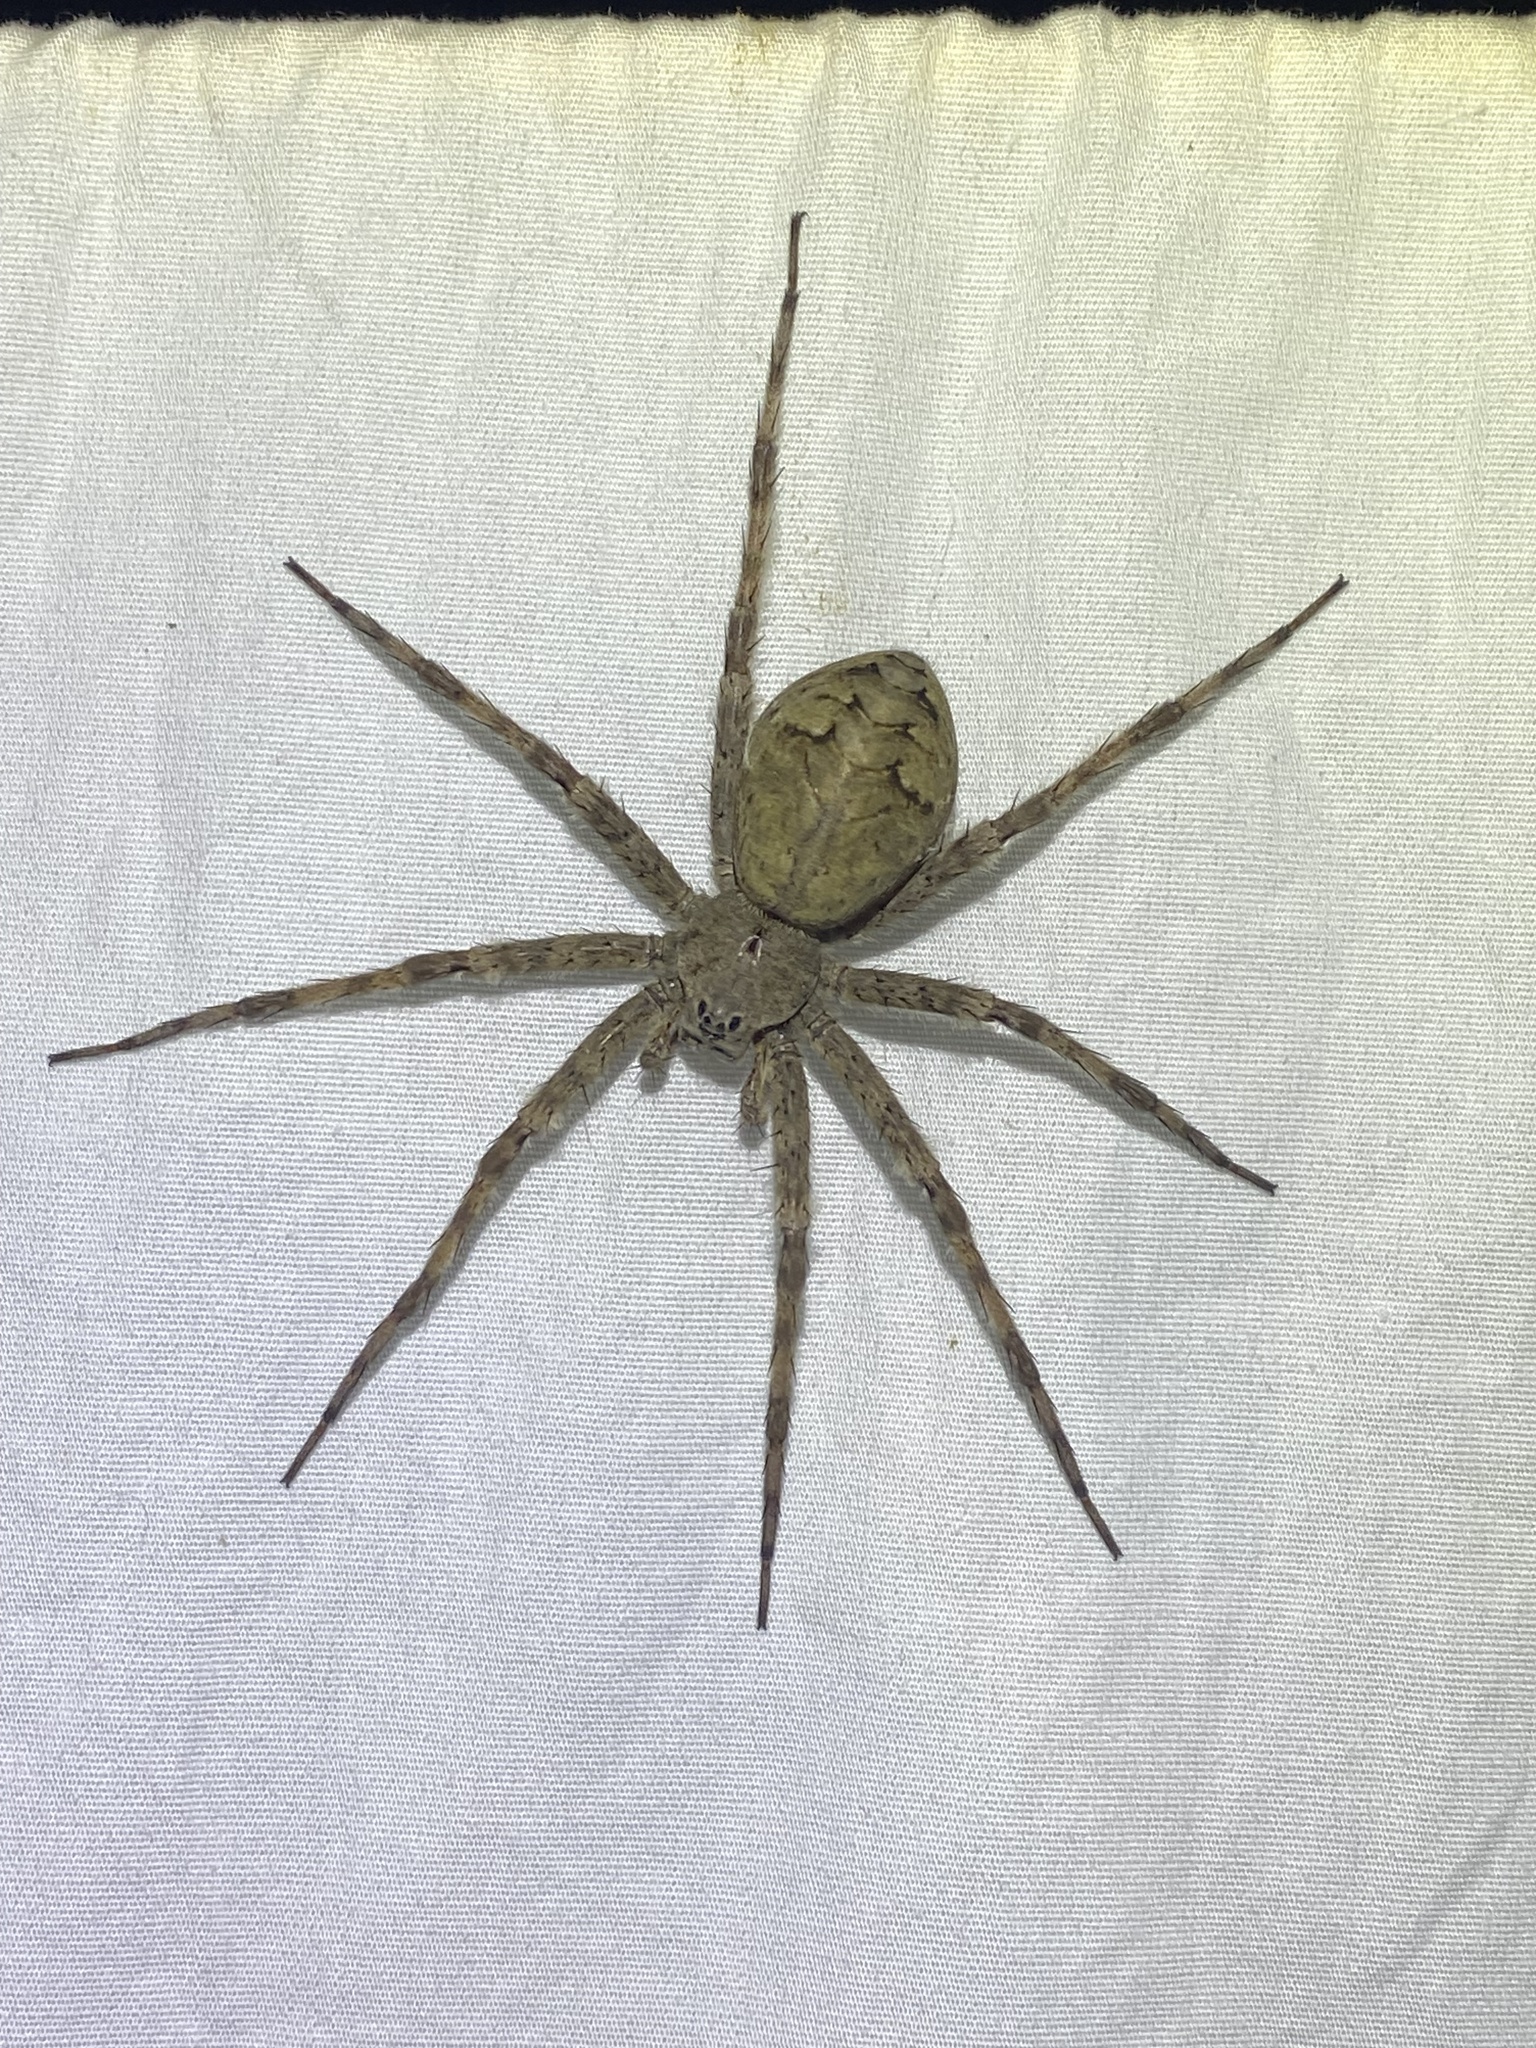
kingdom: Animalia
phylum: Arthropoda
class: Arachnida
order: Araneae
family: Pisauridae
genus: Dolomedes
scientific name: Dolomedes albineus
